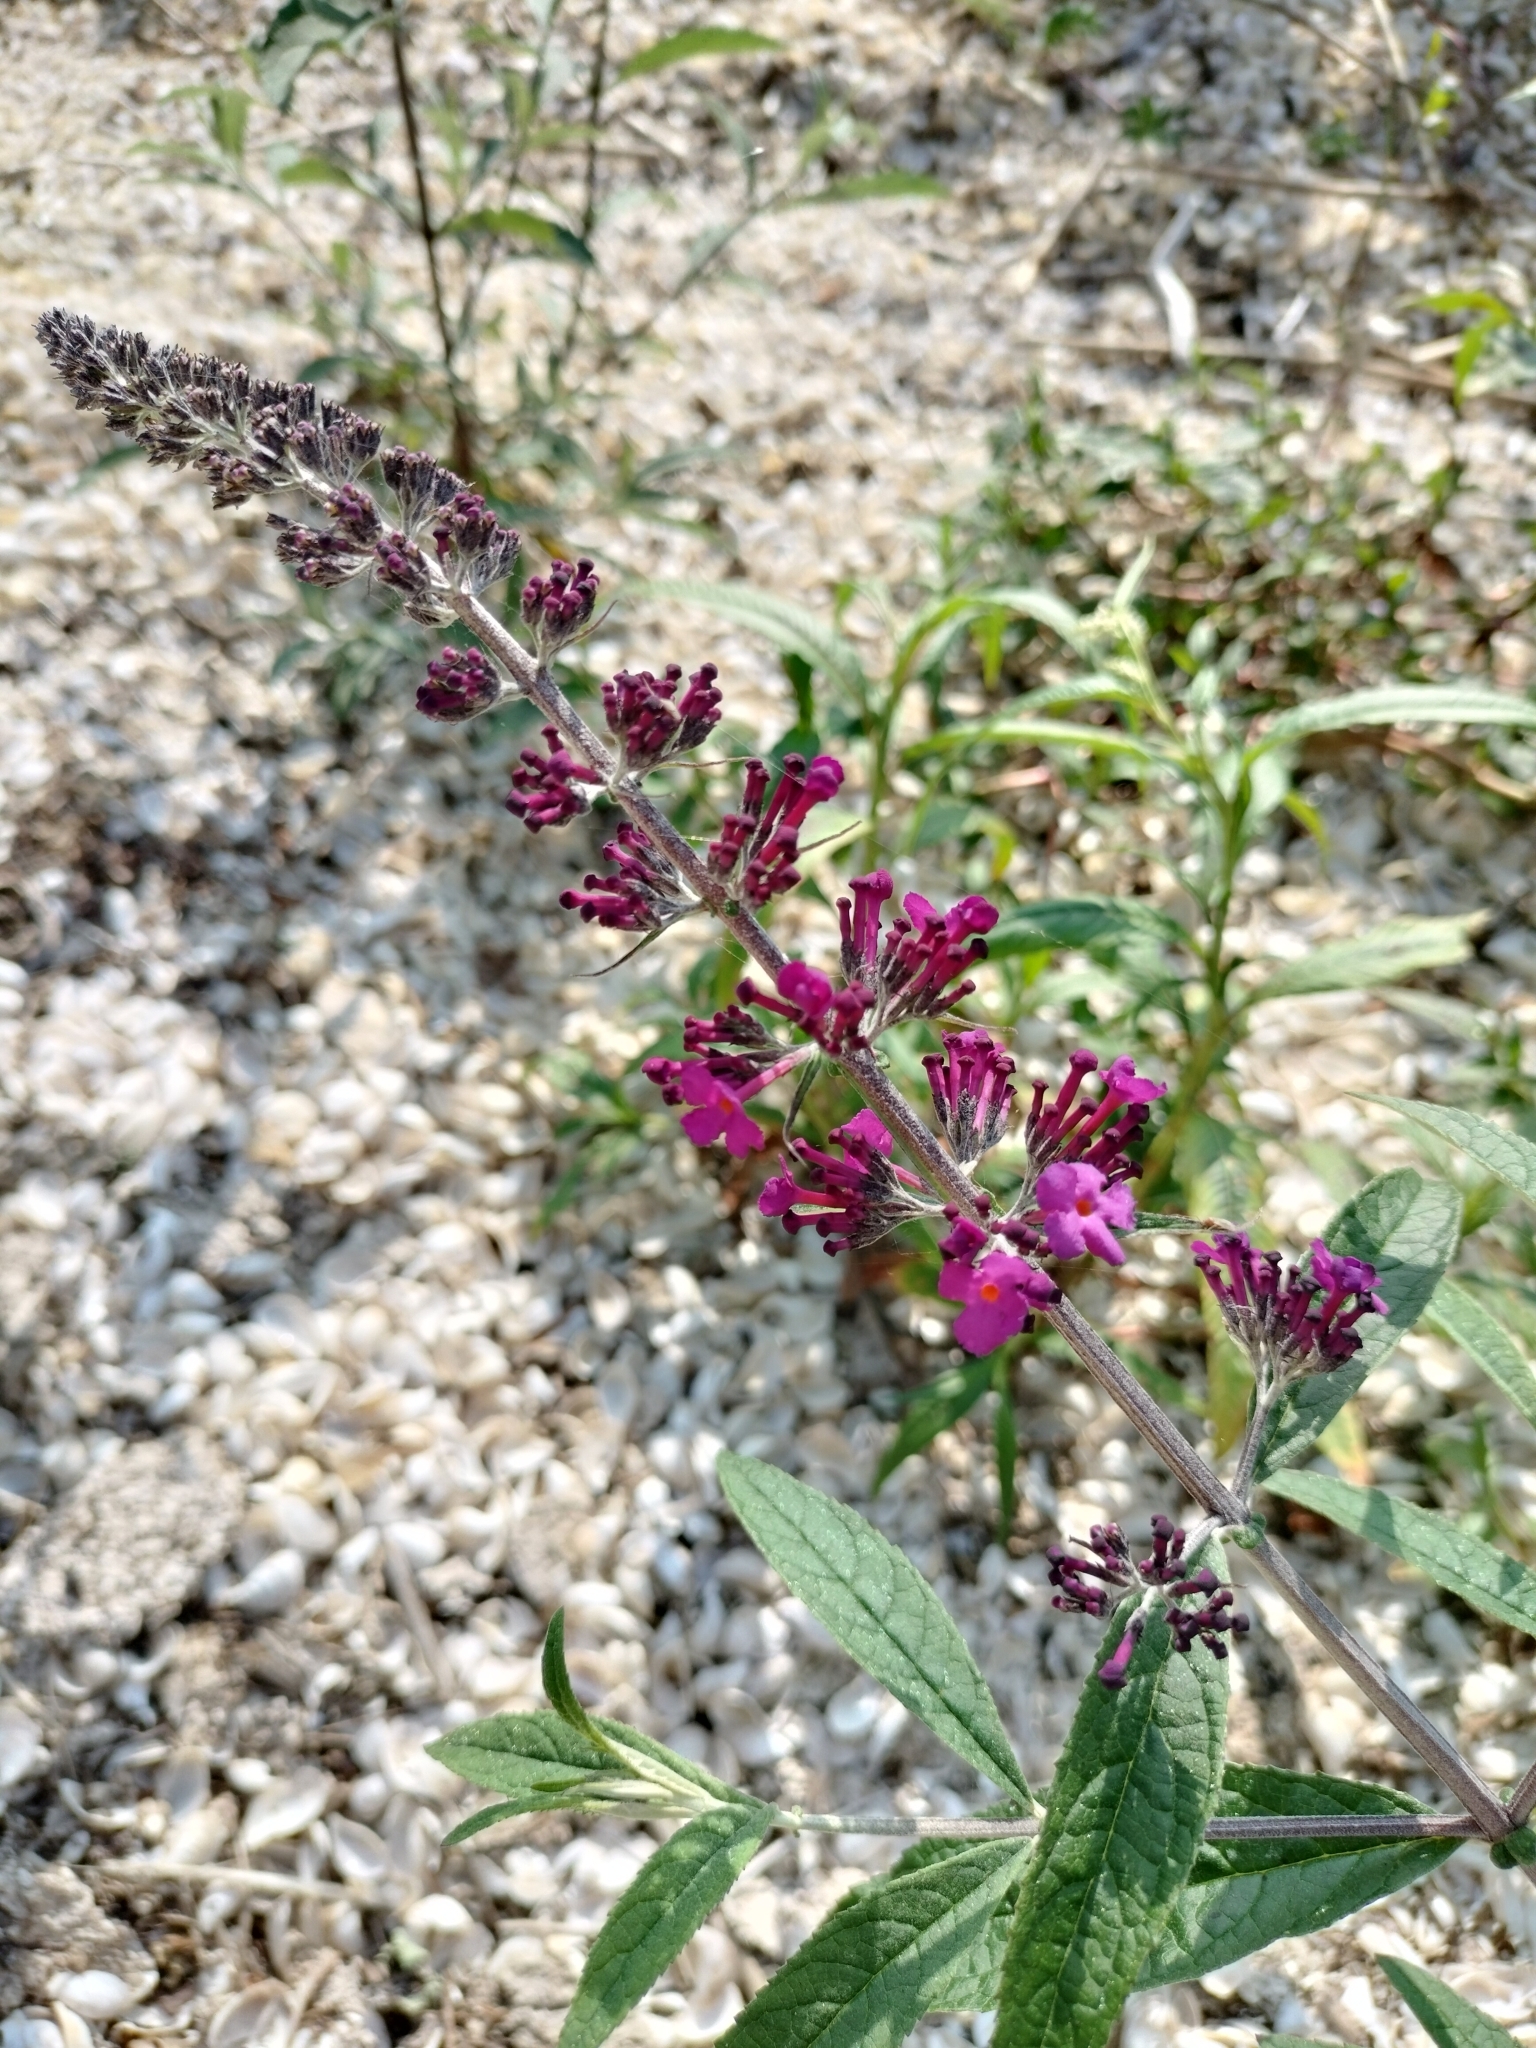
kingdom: Plantae
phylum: Tracheophyta
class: Magnoliopsida
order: Lamiales
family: Scrophulariaceae
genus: Buddleja
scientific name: Buddleja davidii
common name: Butterfly-bush
